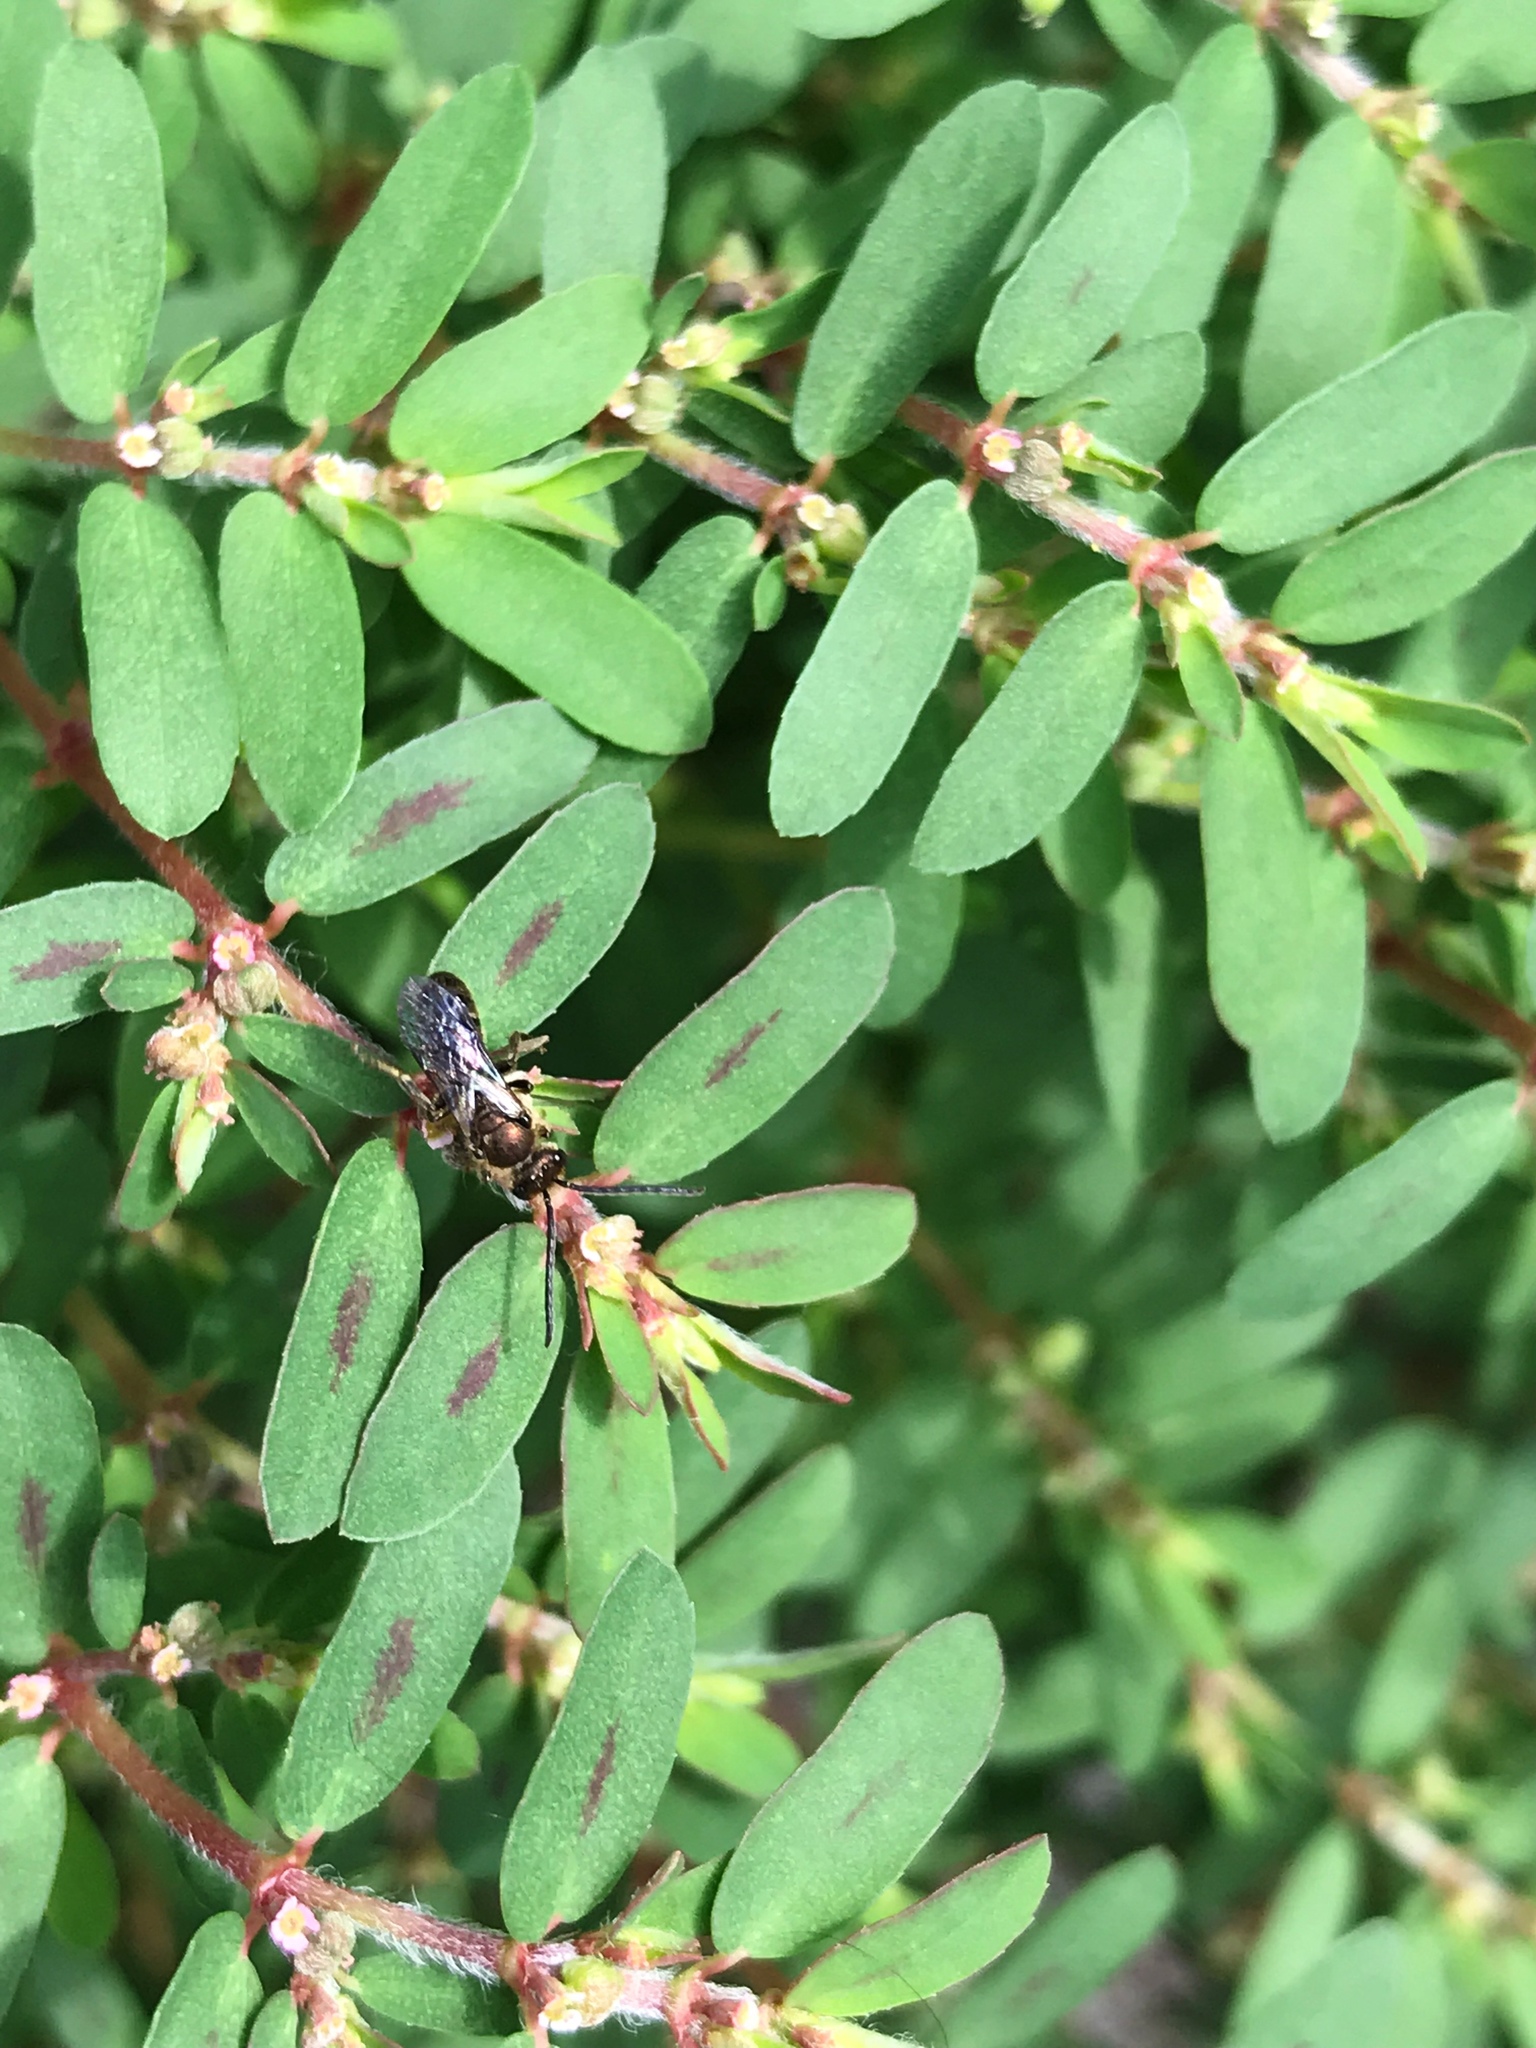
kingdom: Plantae
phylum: Tracheophyta
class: Magnoliopsida
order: Malpighiales
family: Euphorbiaceae
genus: Euphorbia
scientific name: Euphorbia maculata
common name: Spotted spurge
